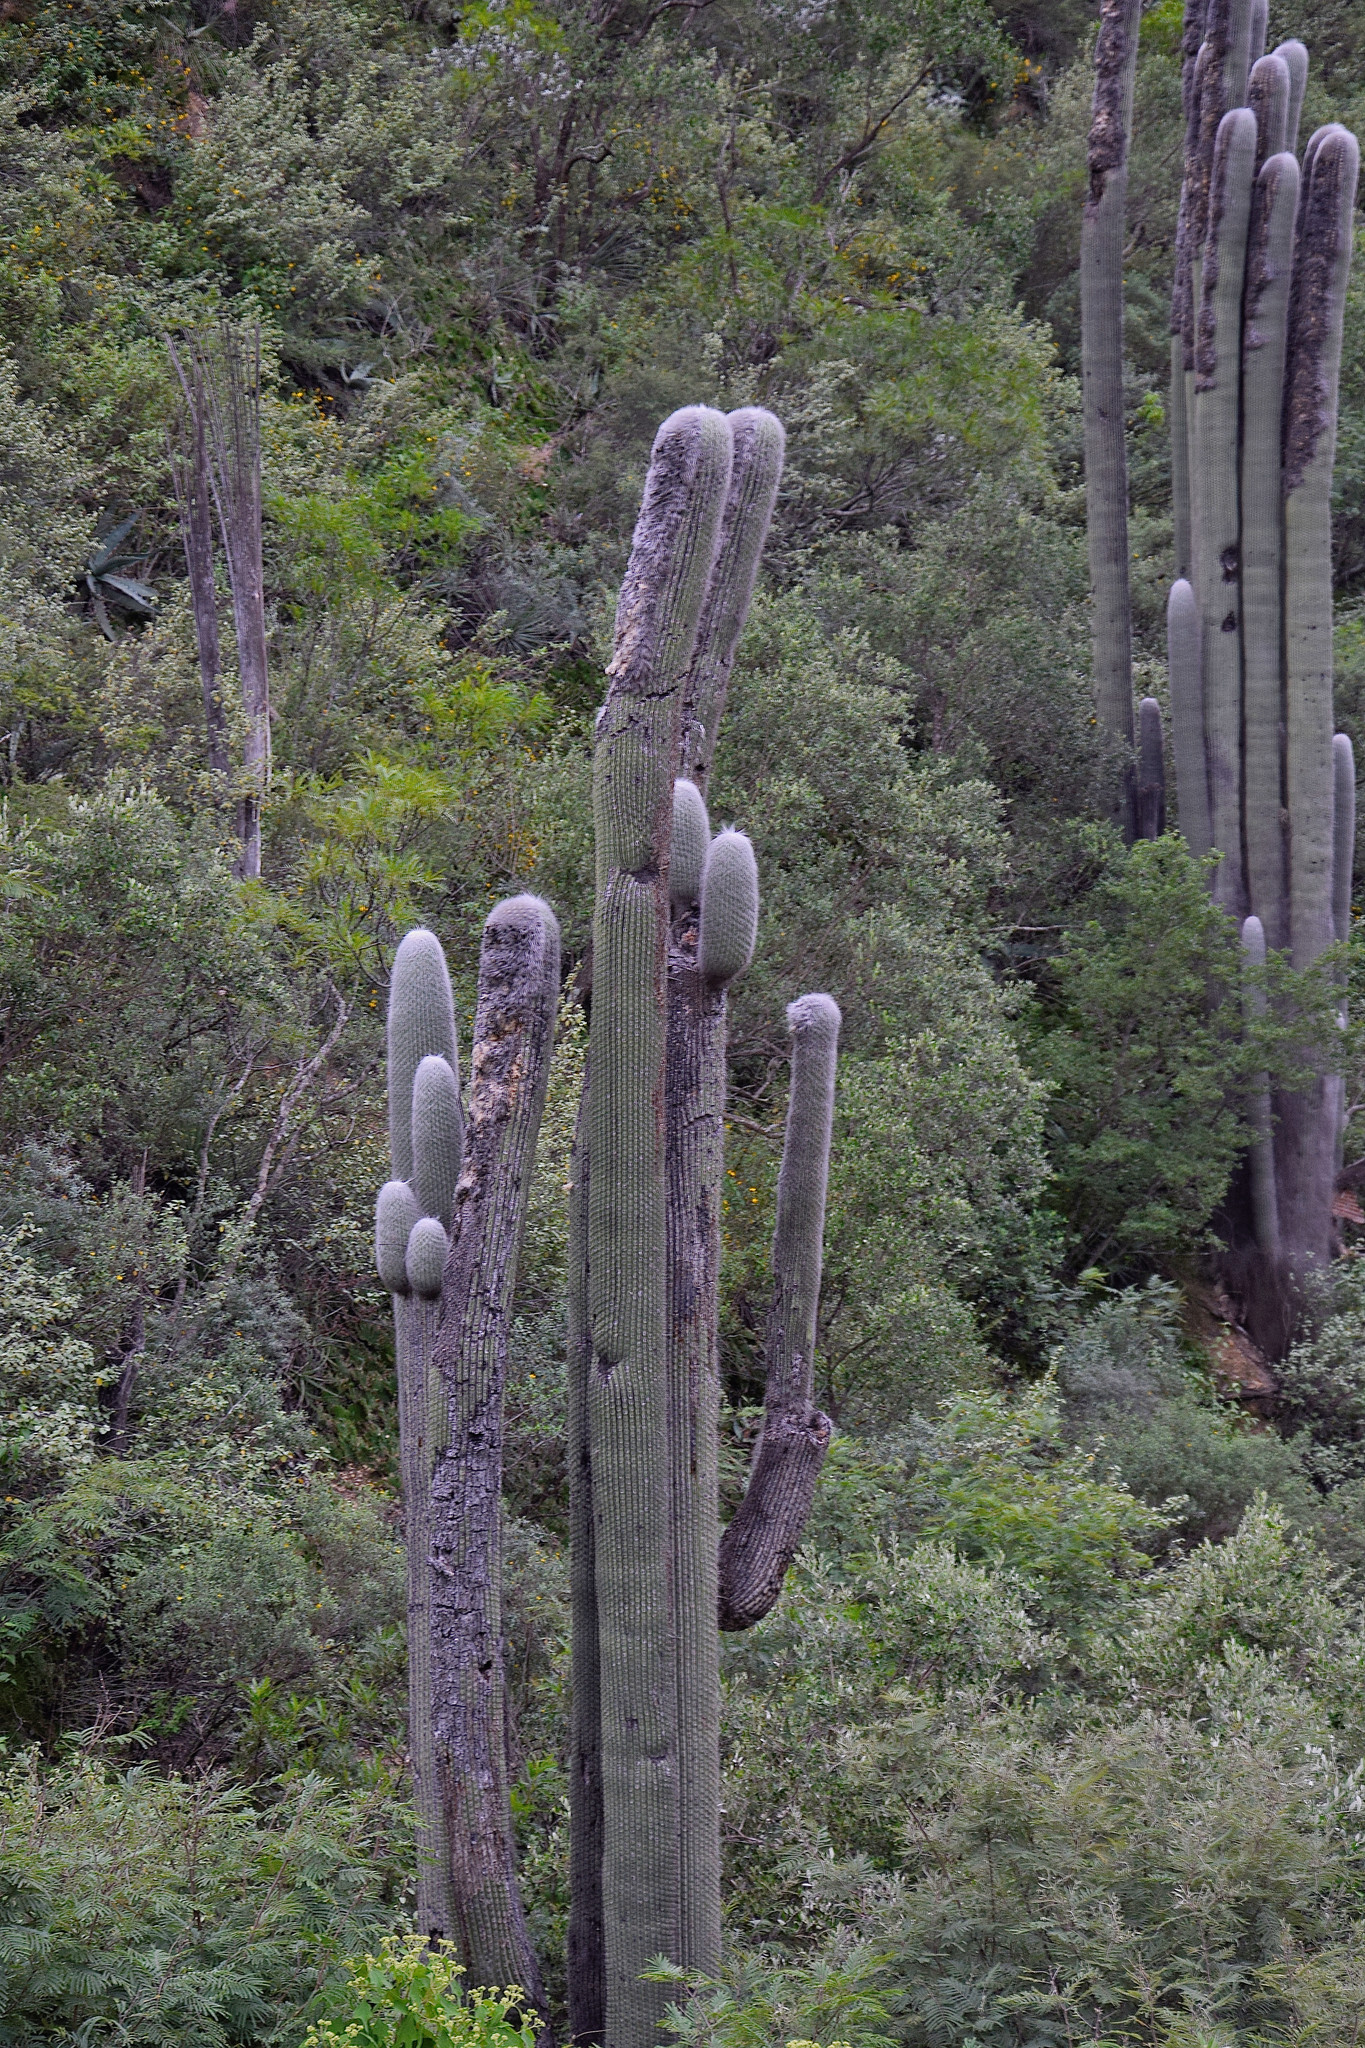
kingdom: Plantae
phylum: Tracheophyta
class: Magnoliopsida
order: Caryophyllales
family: Cactaceae
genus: Cephalocereus
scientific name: Cephalocereus senilis
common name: Old man cactus
